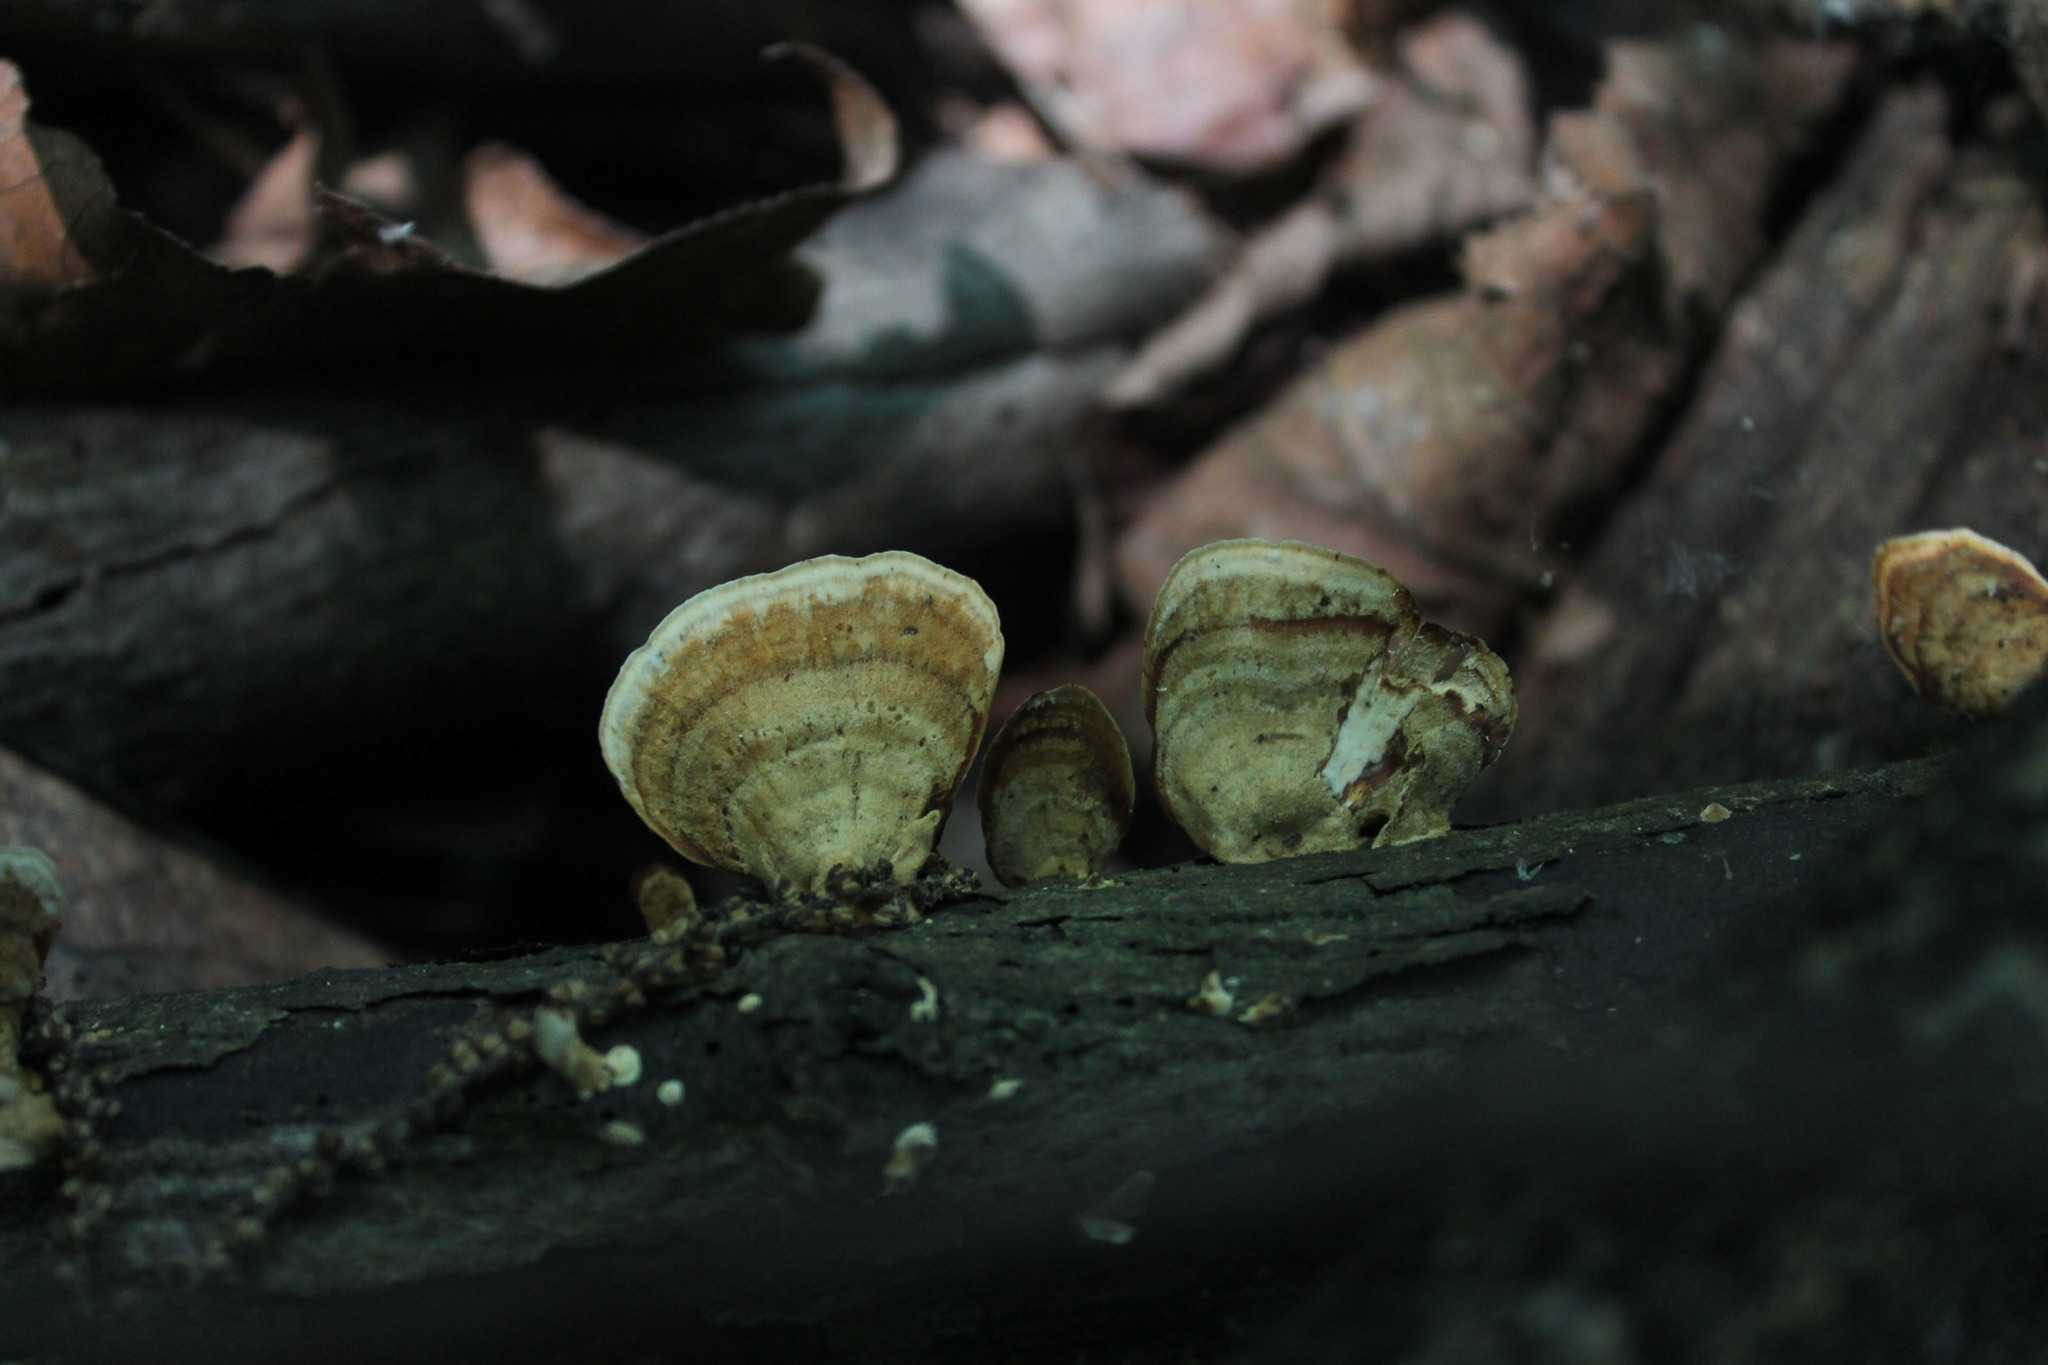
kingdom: Fungi
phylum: Basidiomycota
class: Agaricomycetes
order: Russulales
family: Stereaceae
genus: Stereum
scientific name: Stereum lobatum
